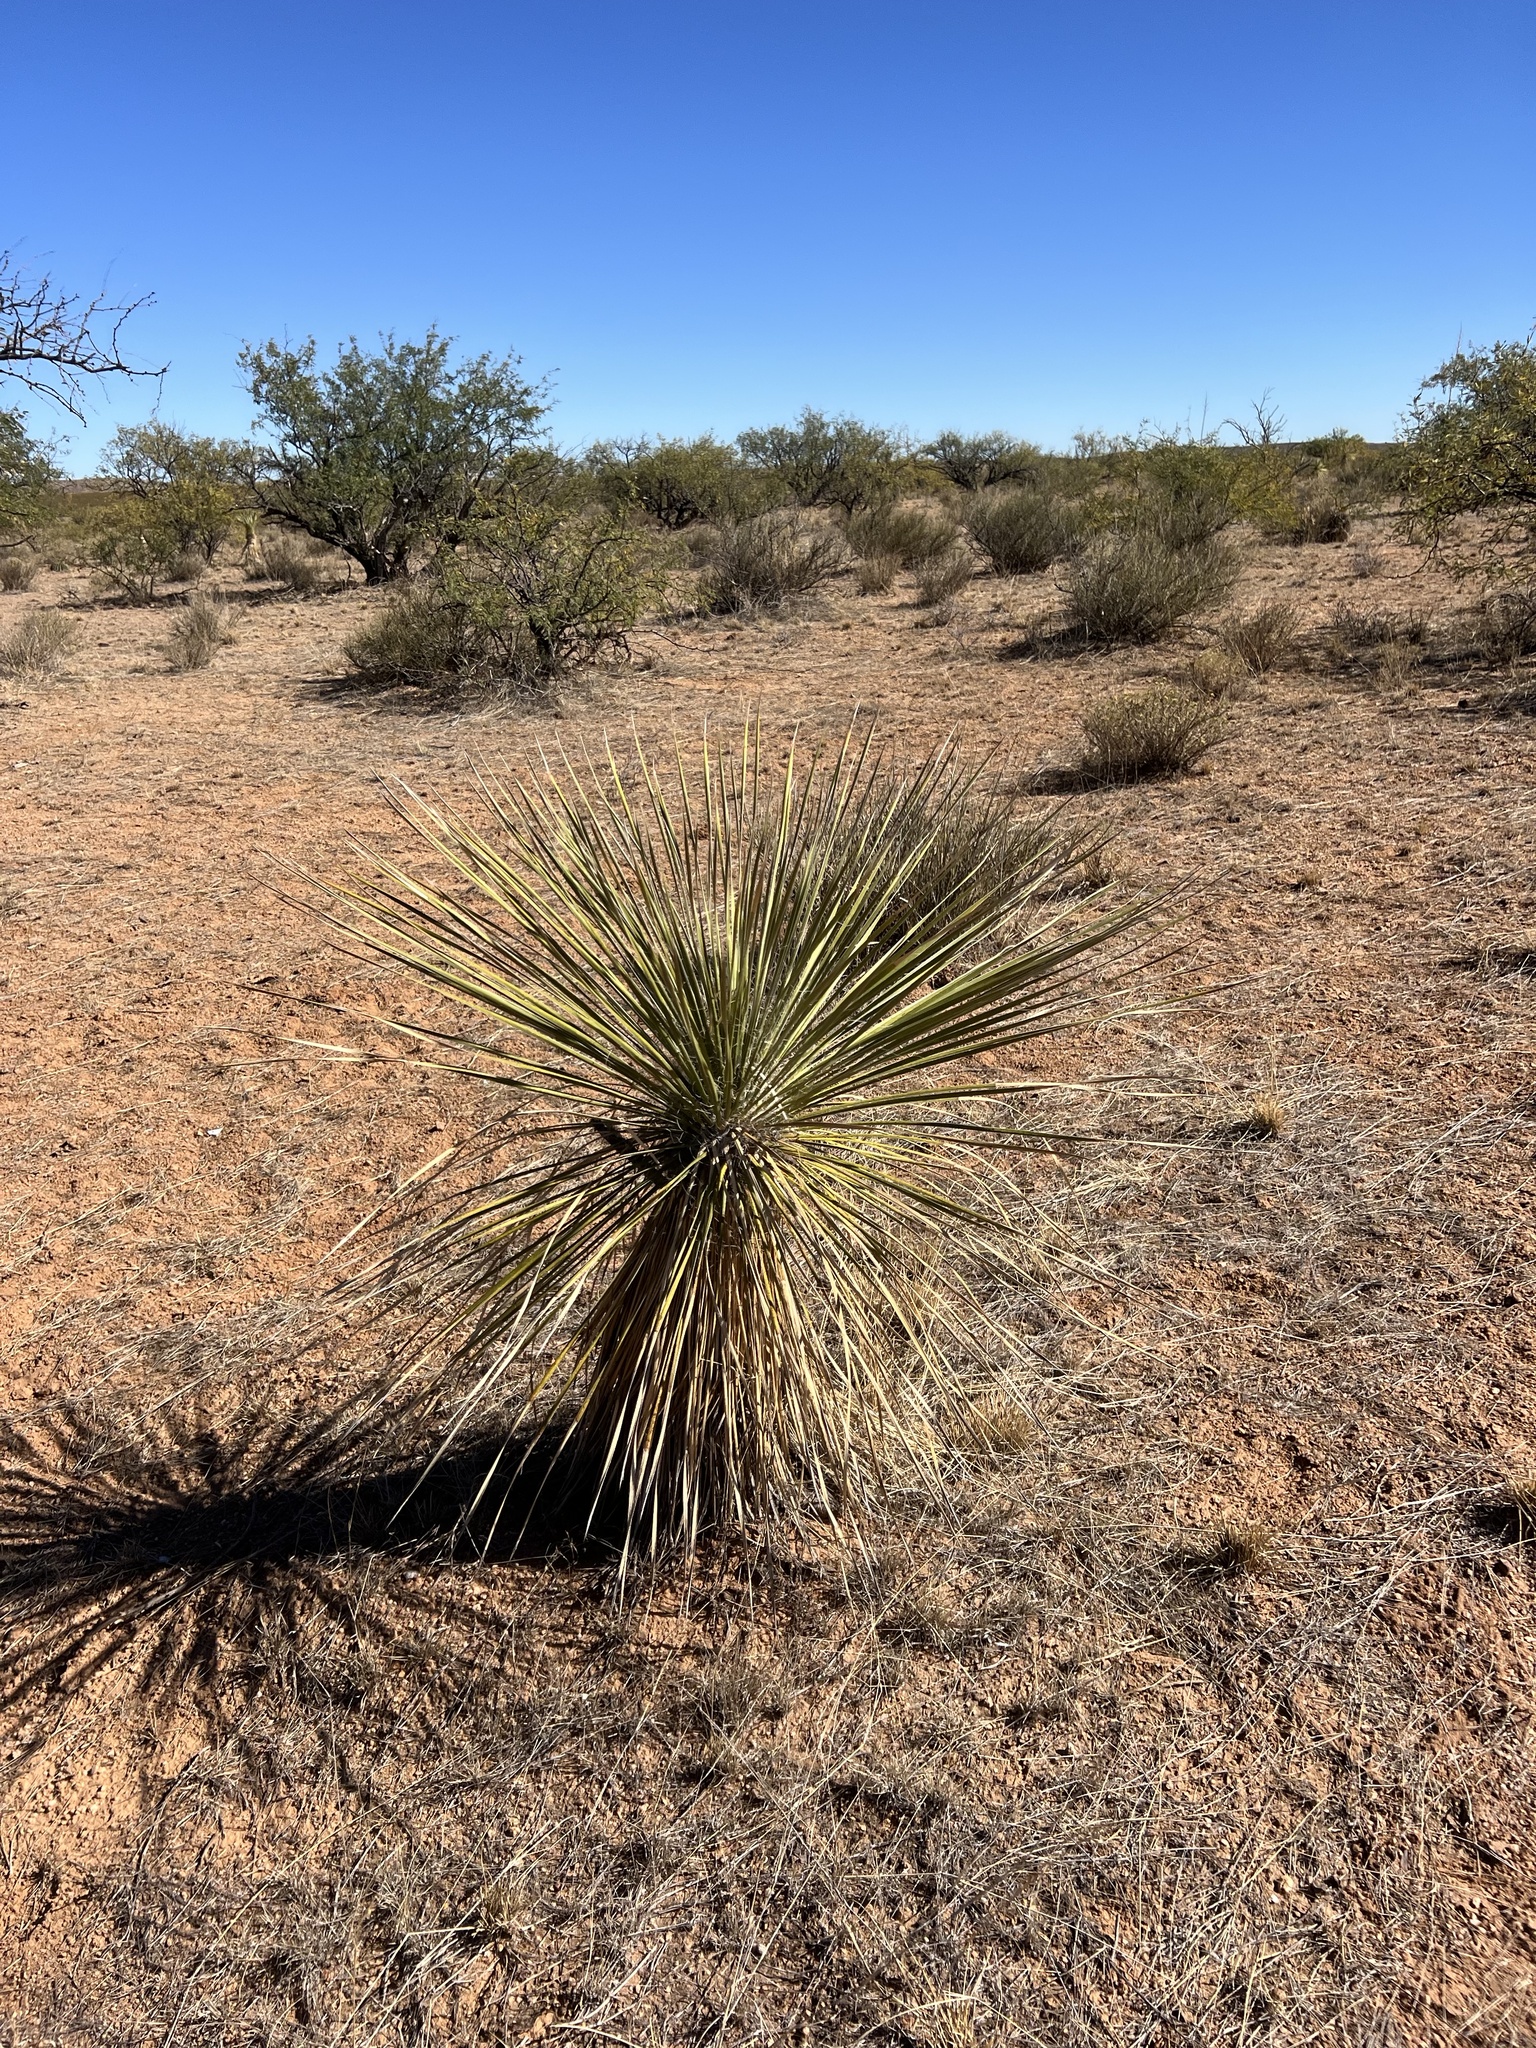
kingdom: Plantae
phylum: Tracheophyta
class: Liliopsida
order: Asparagales
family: Asparagaceae
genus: Yucca
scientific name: Yucca elata
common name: Palmella
